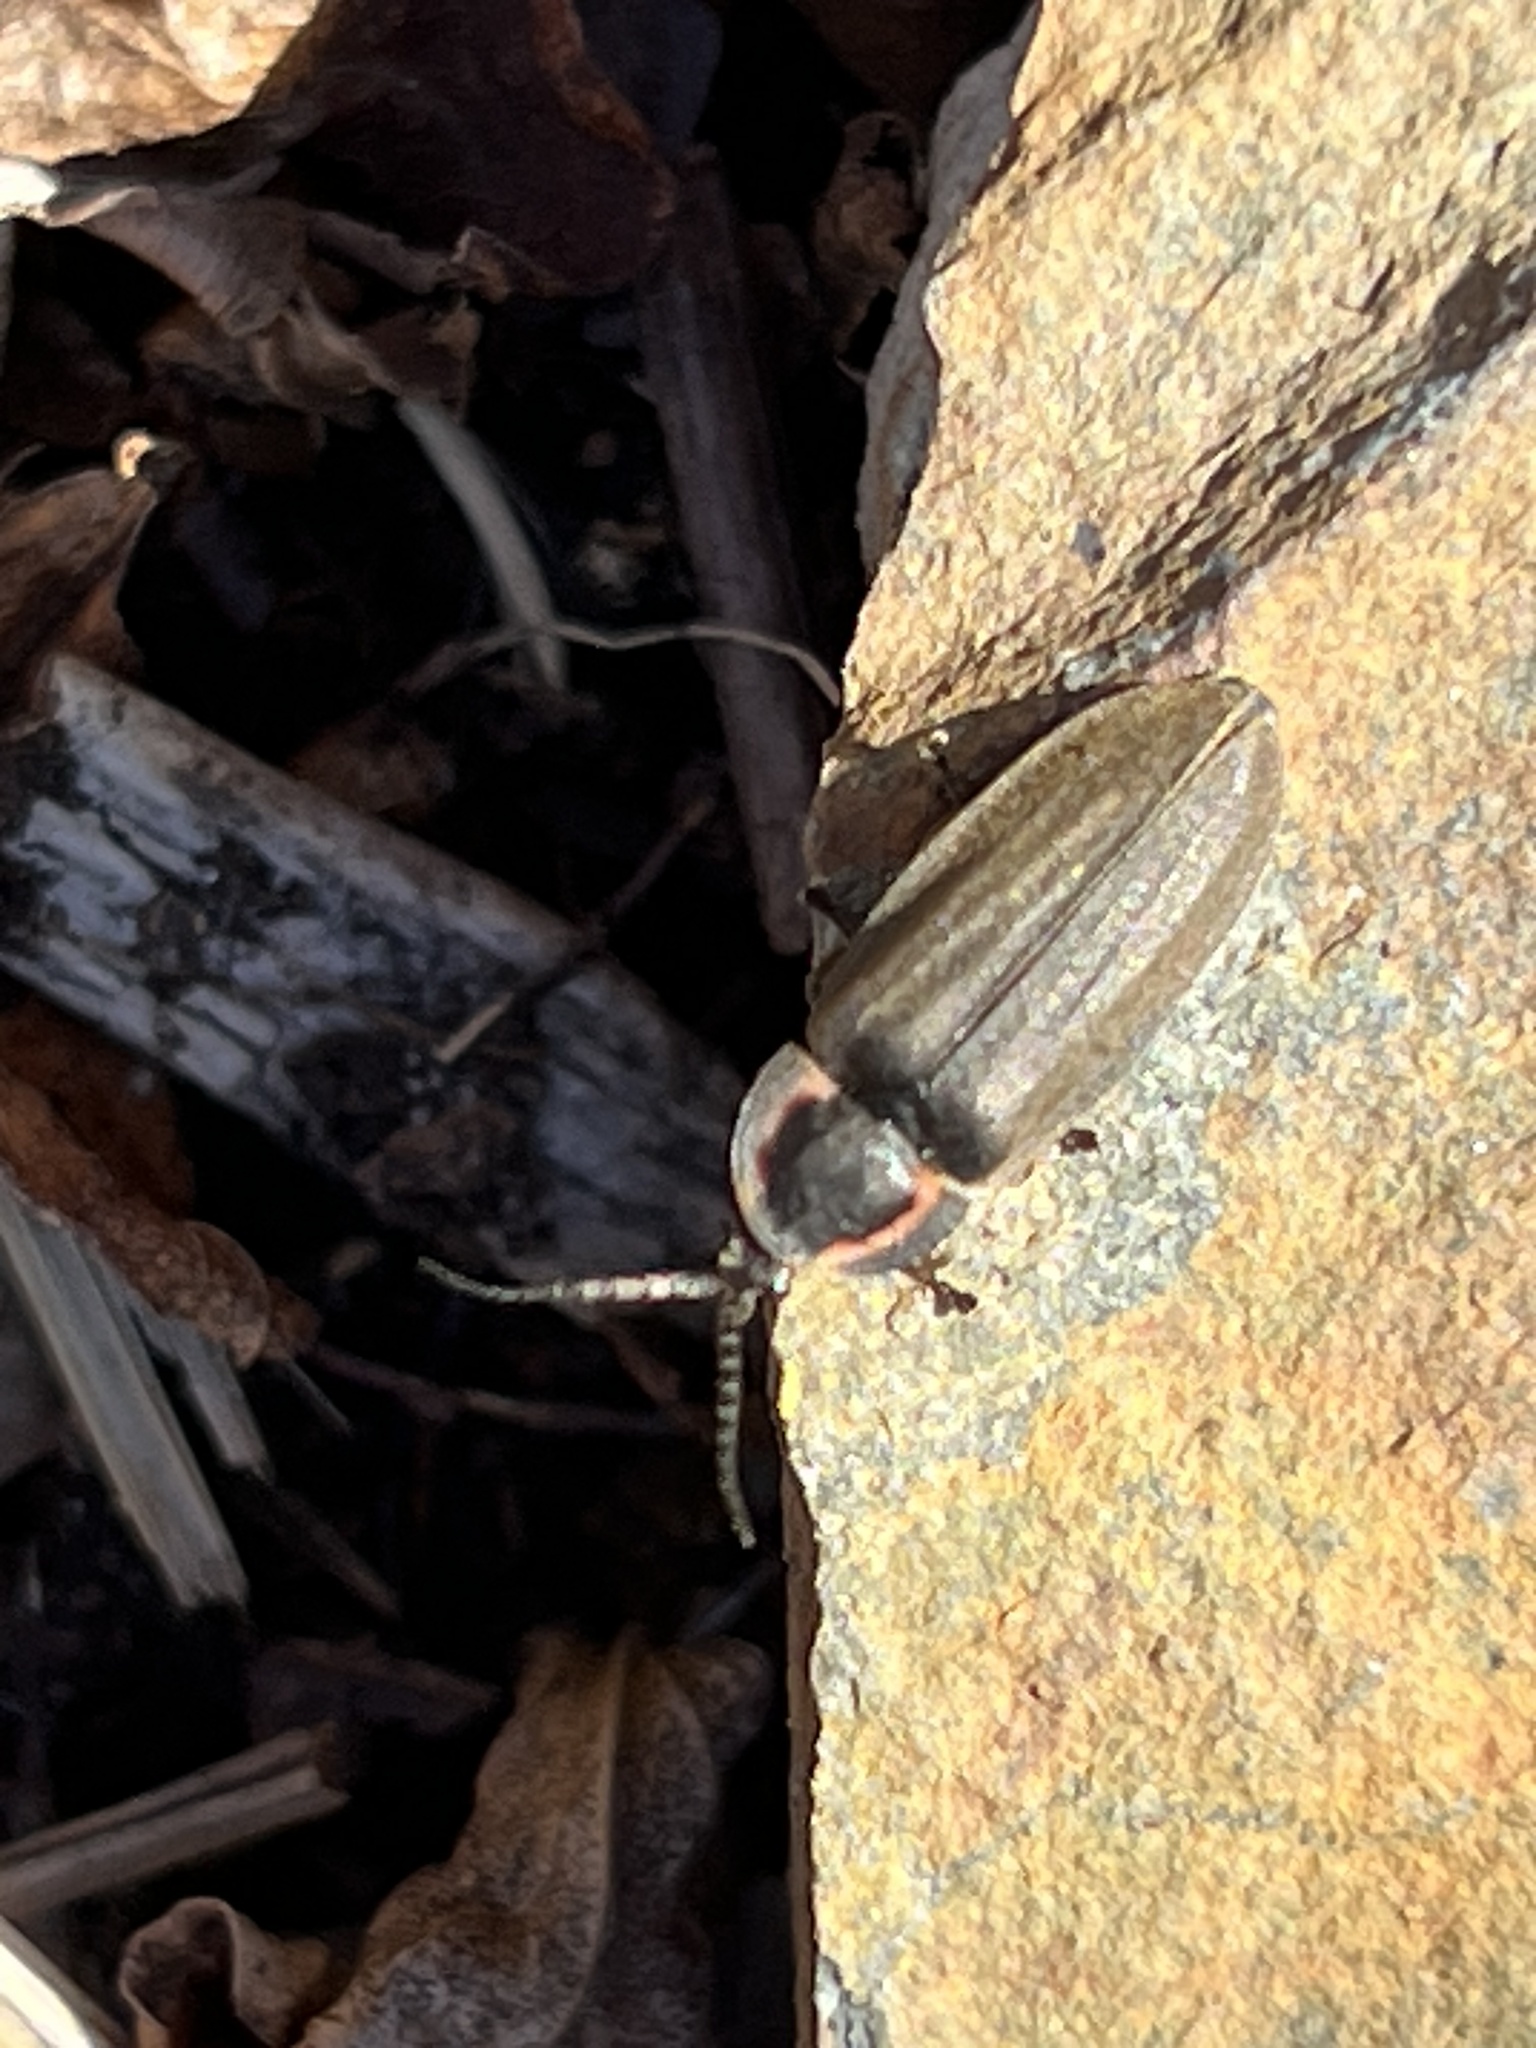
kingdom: Animalia
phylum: Arthropoda
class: Insecta
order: Coleoptera
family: Lampyridae
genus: Photinus
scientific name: Photinus corrusca
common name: Winter firefly
